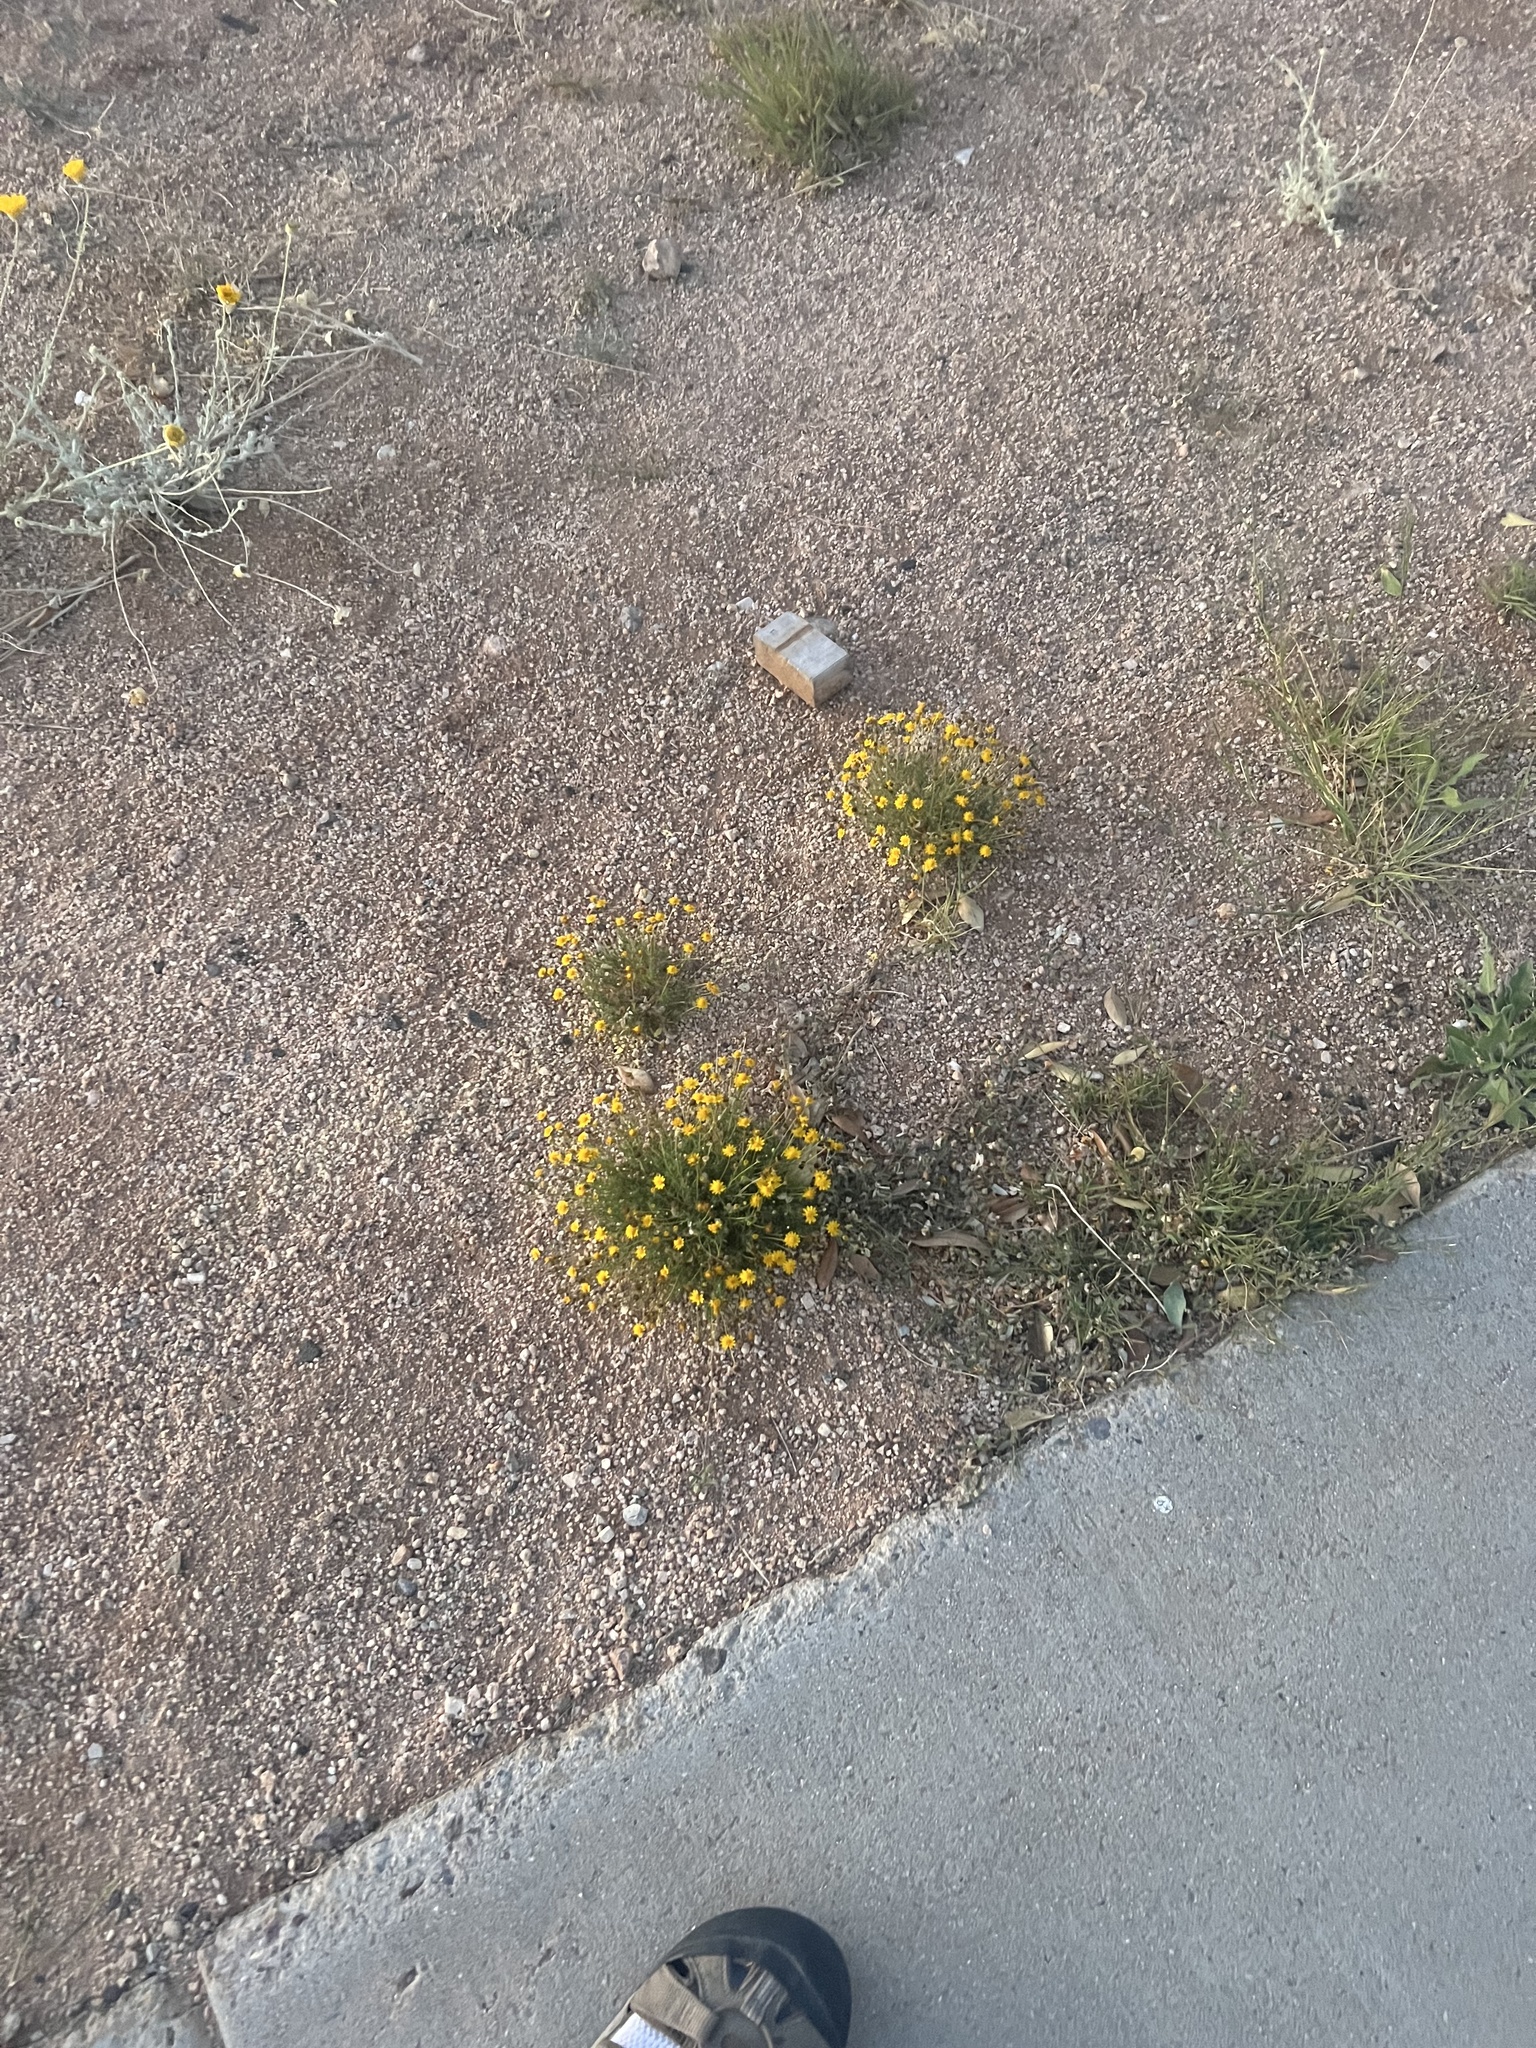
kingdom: Plantae
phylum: Tracheophyta
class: Magnoliopsida
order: Asterales
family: Asteraceae
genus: Thymophylla
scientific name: Thymophylla pentachaeta
